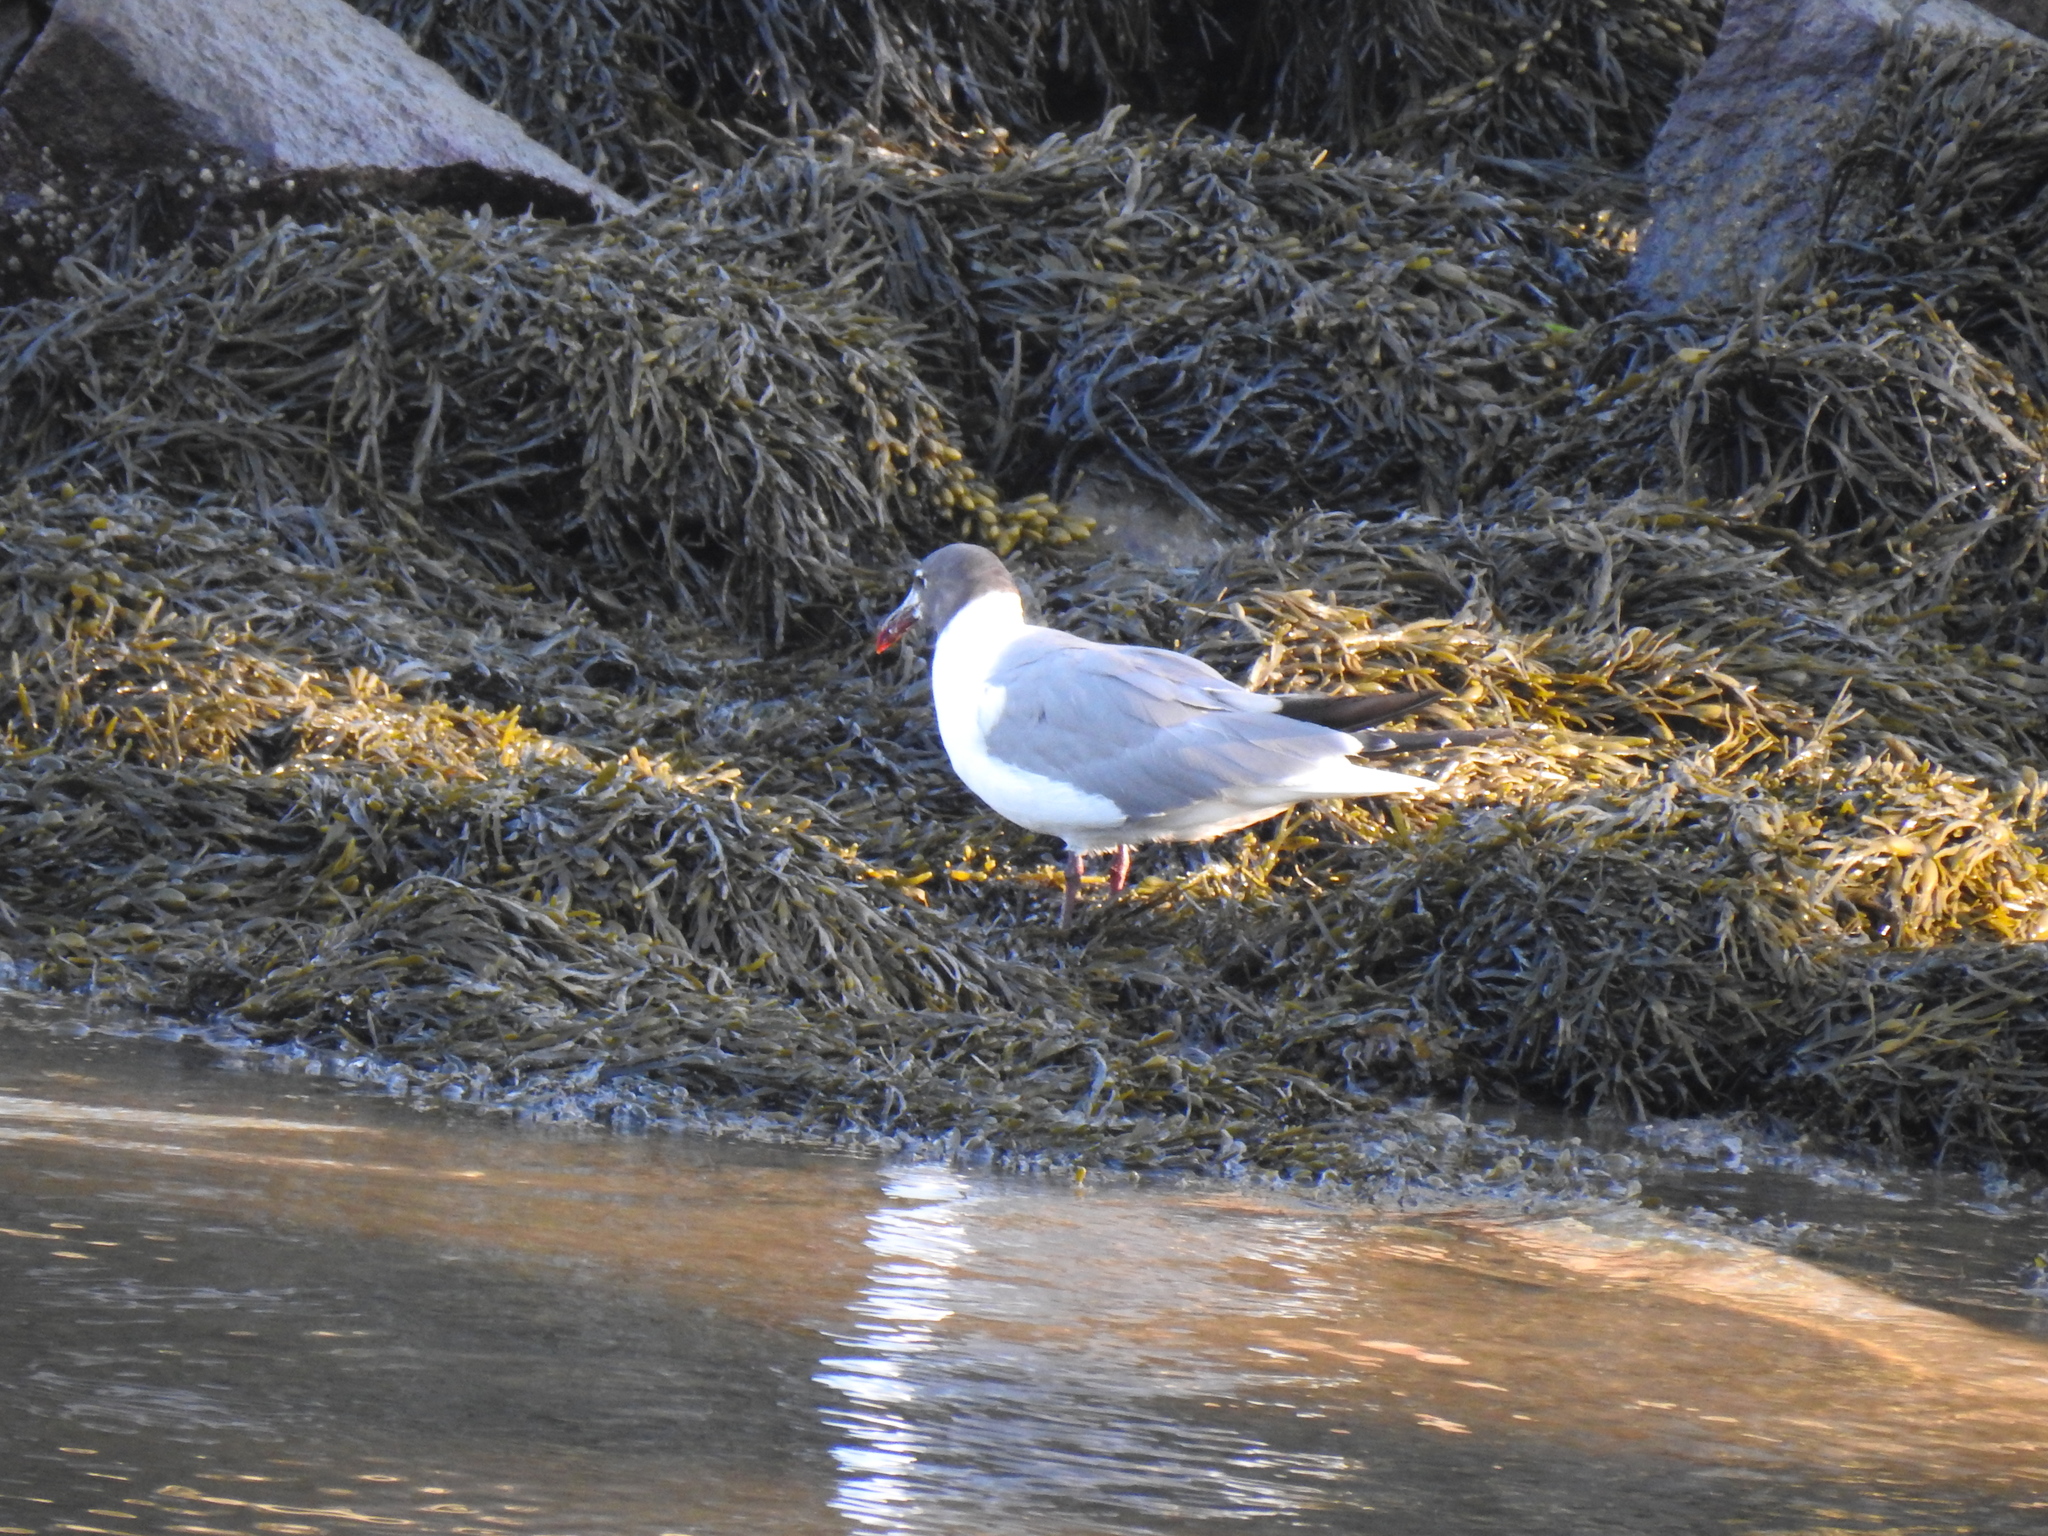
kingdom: Animalia
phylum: Chordata
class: Aves
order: Charadriiformes
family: Laridae
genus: Leucophaeus
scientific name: Leucophaeus atricilla
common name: Laughing gull
